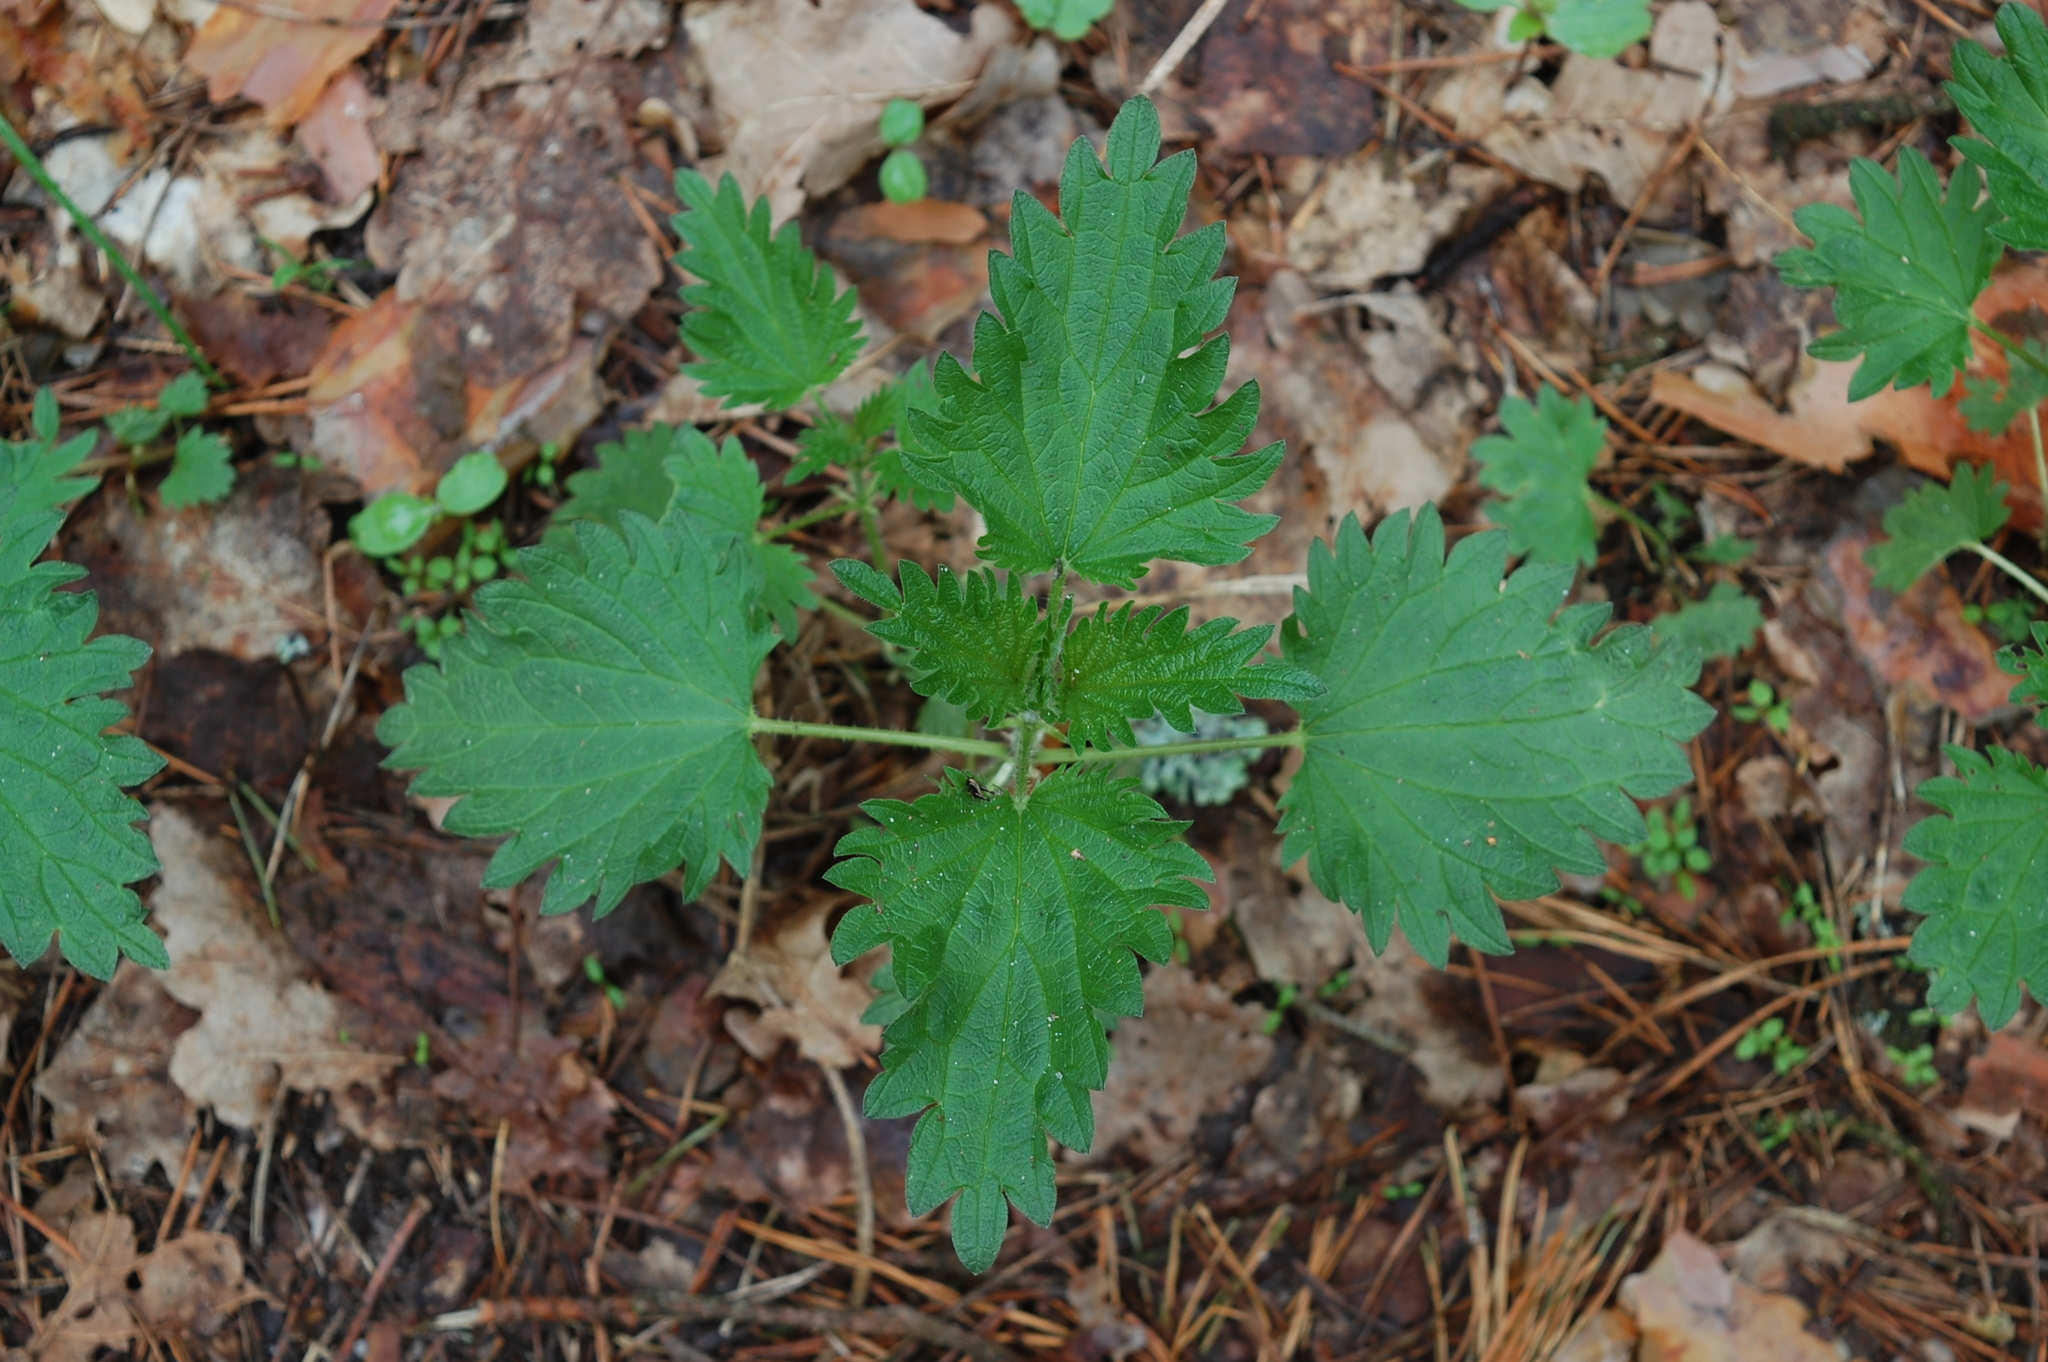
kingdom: Plantae
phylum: Tracheophyta
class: Magnoliopsida
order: Rosales
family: Urticaceae
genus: Urtica
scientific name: Urtica dioica
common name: Common nettle
